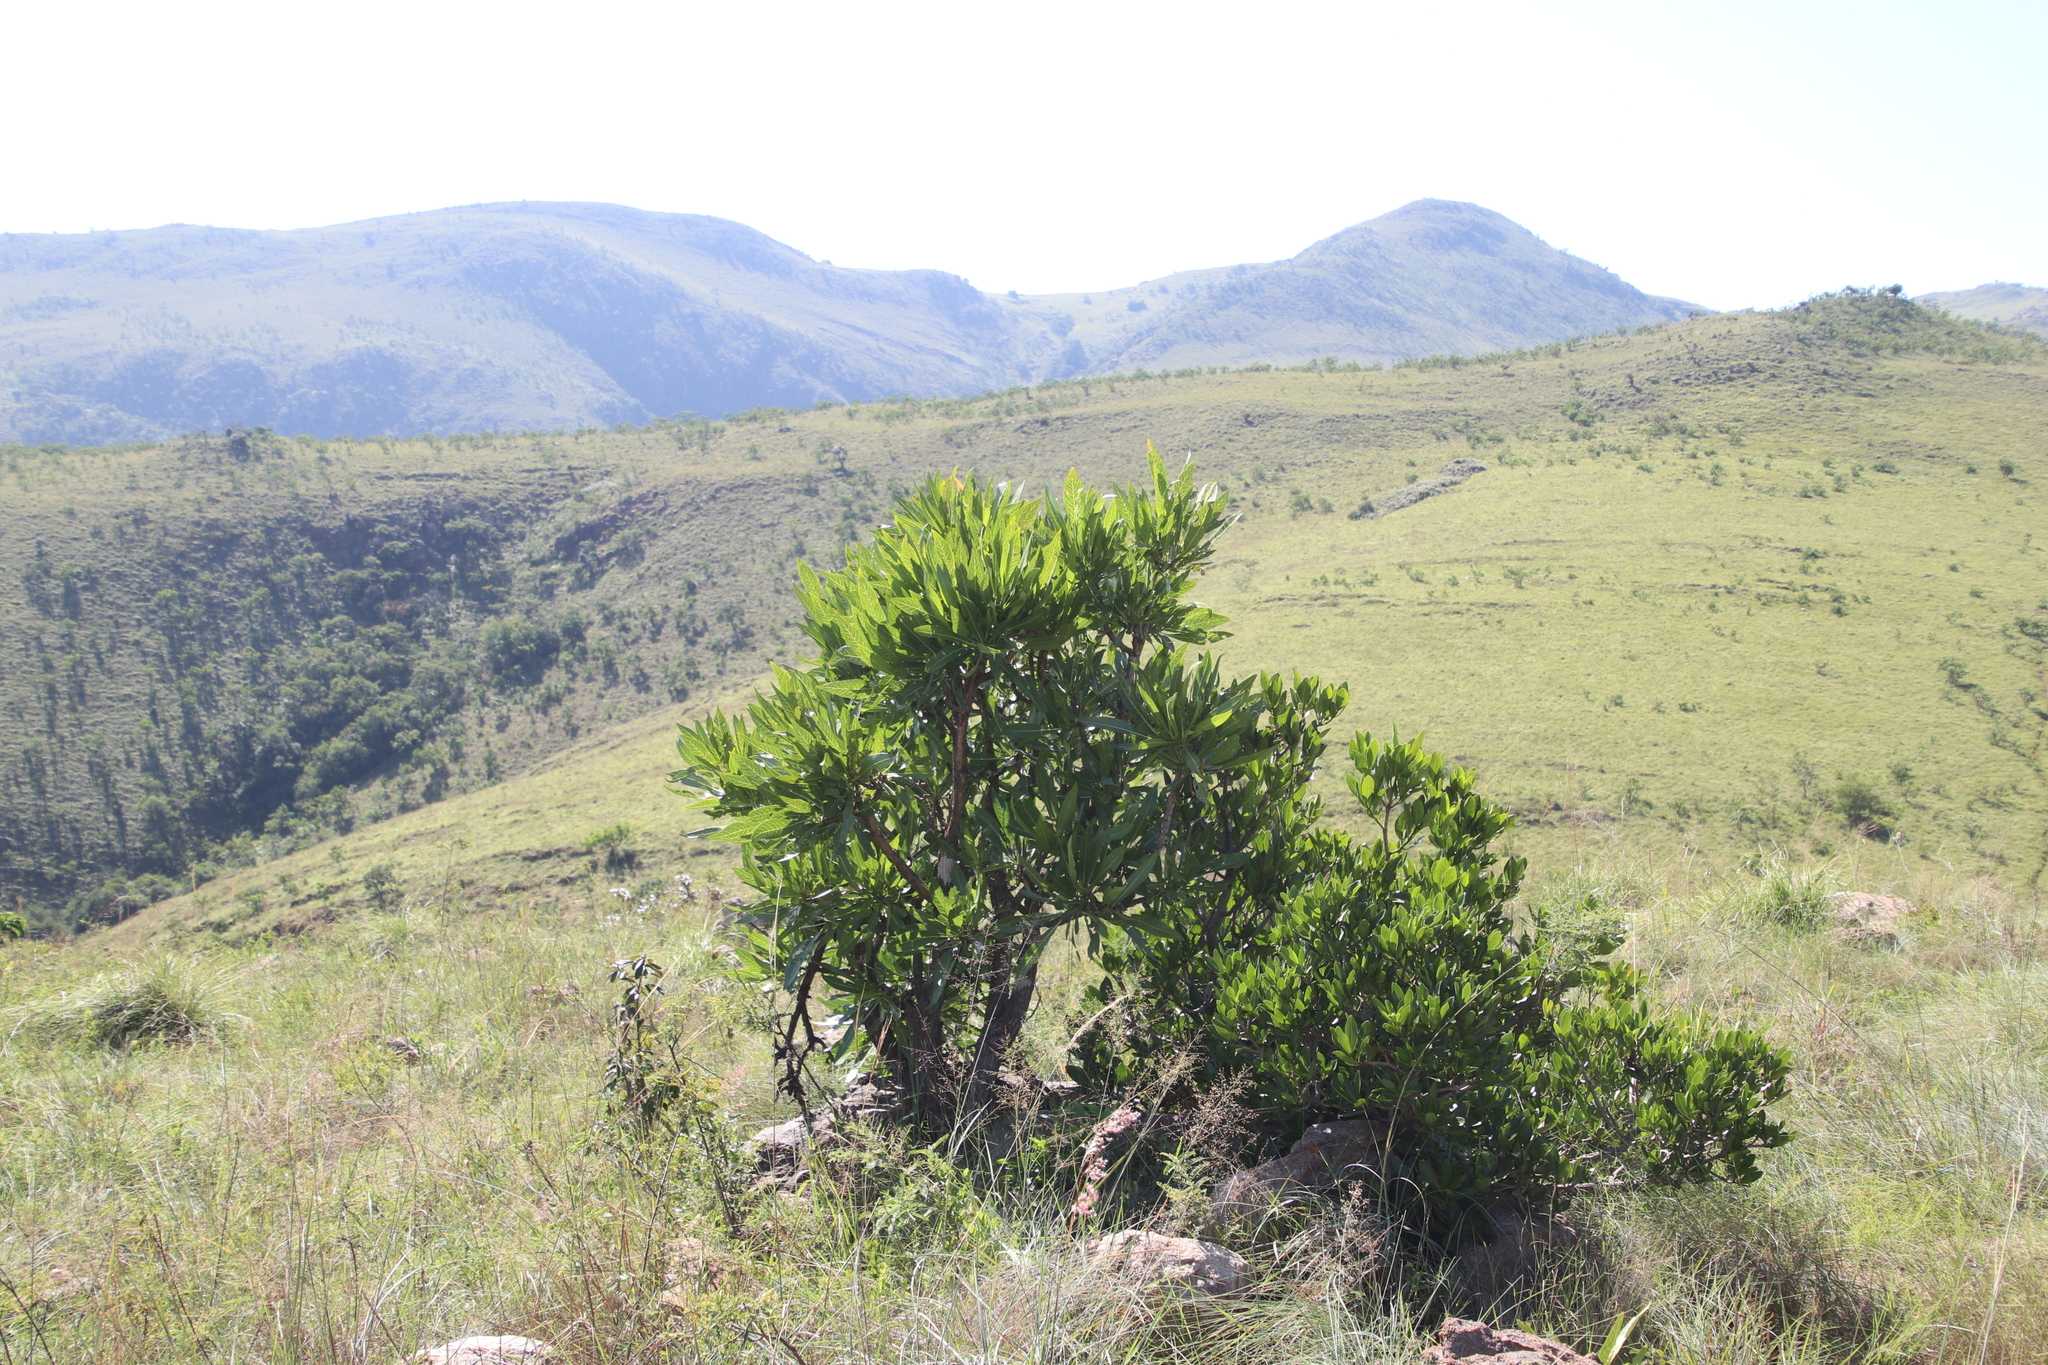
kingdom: Plantae
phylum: Tracheophyta
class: Magnoliopsida
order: Gentianales
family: Rubiaceae
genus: Pavetta
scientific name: Pavetta edentula
